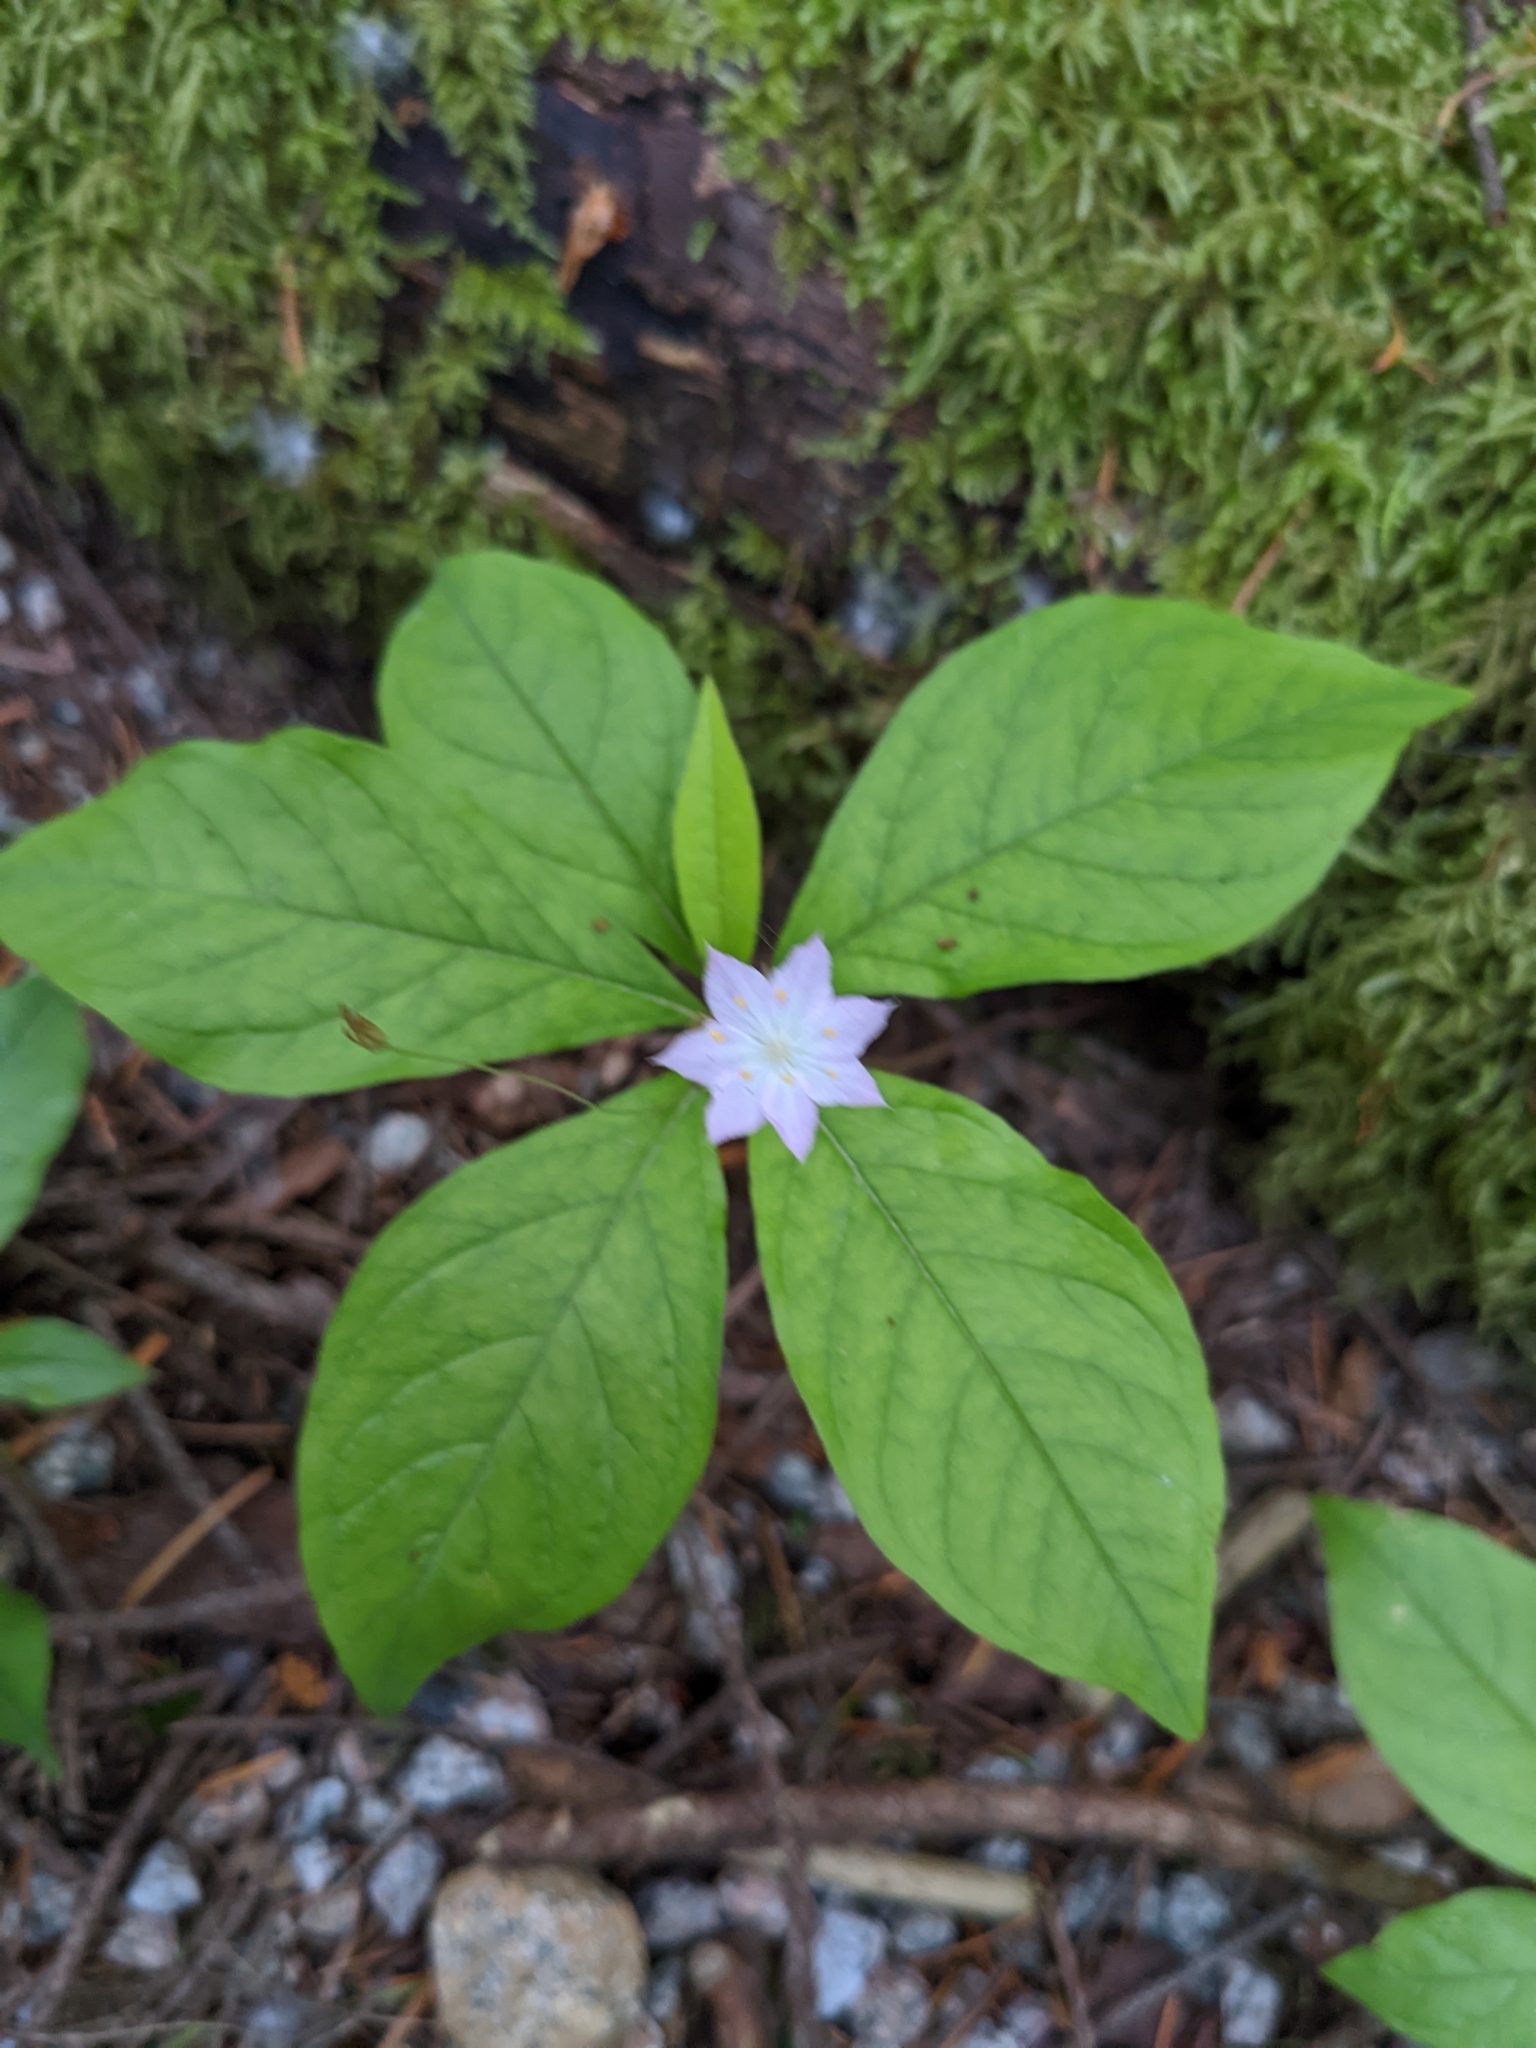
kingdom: Plantae
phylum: Tracheophyta
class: Magnoliopsida
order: Ericales
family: Primulaceae
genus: Lysimachia
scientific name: Lysimachia latifolia
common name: Pacific starflower
